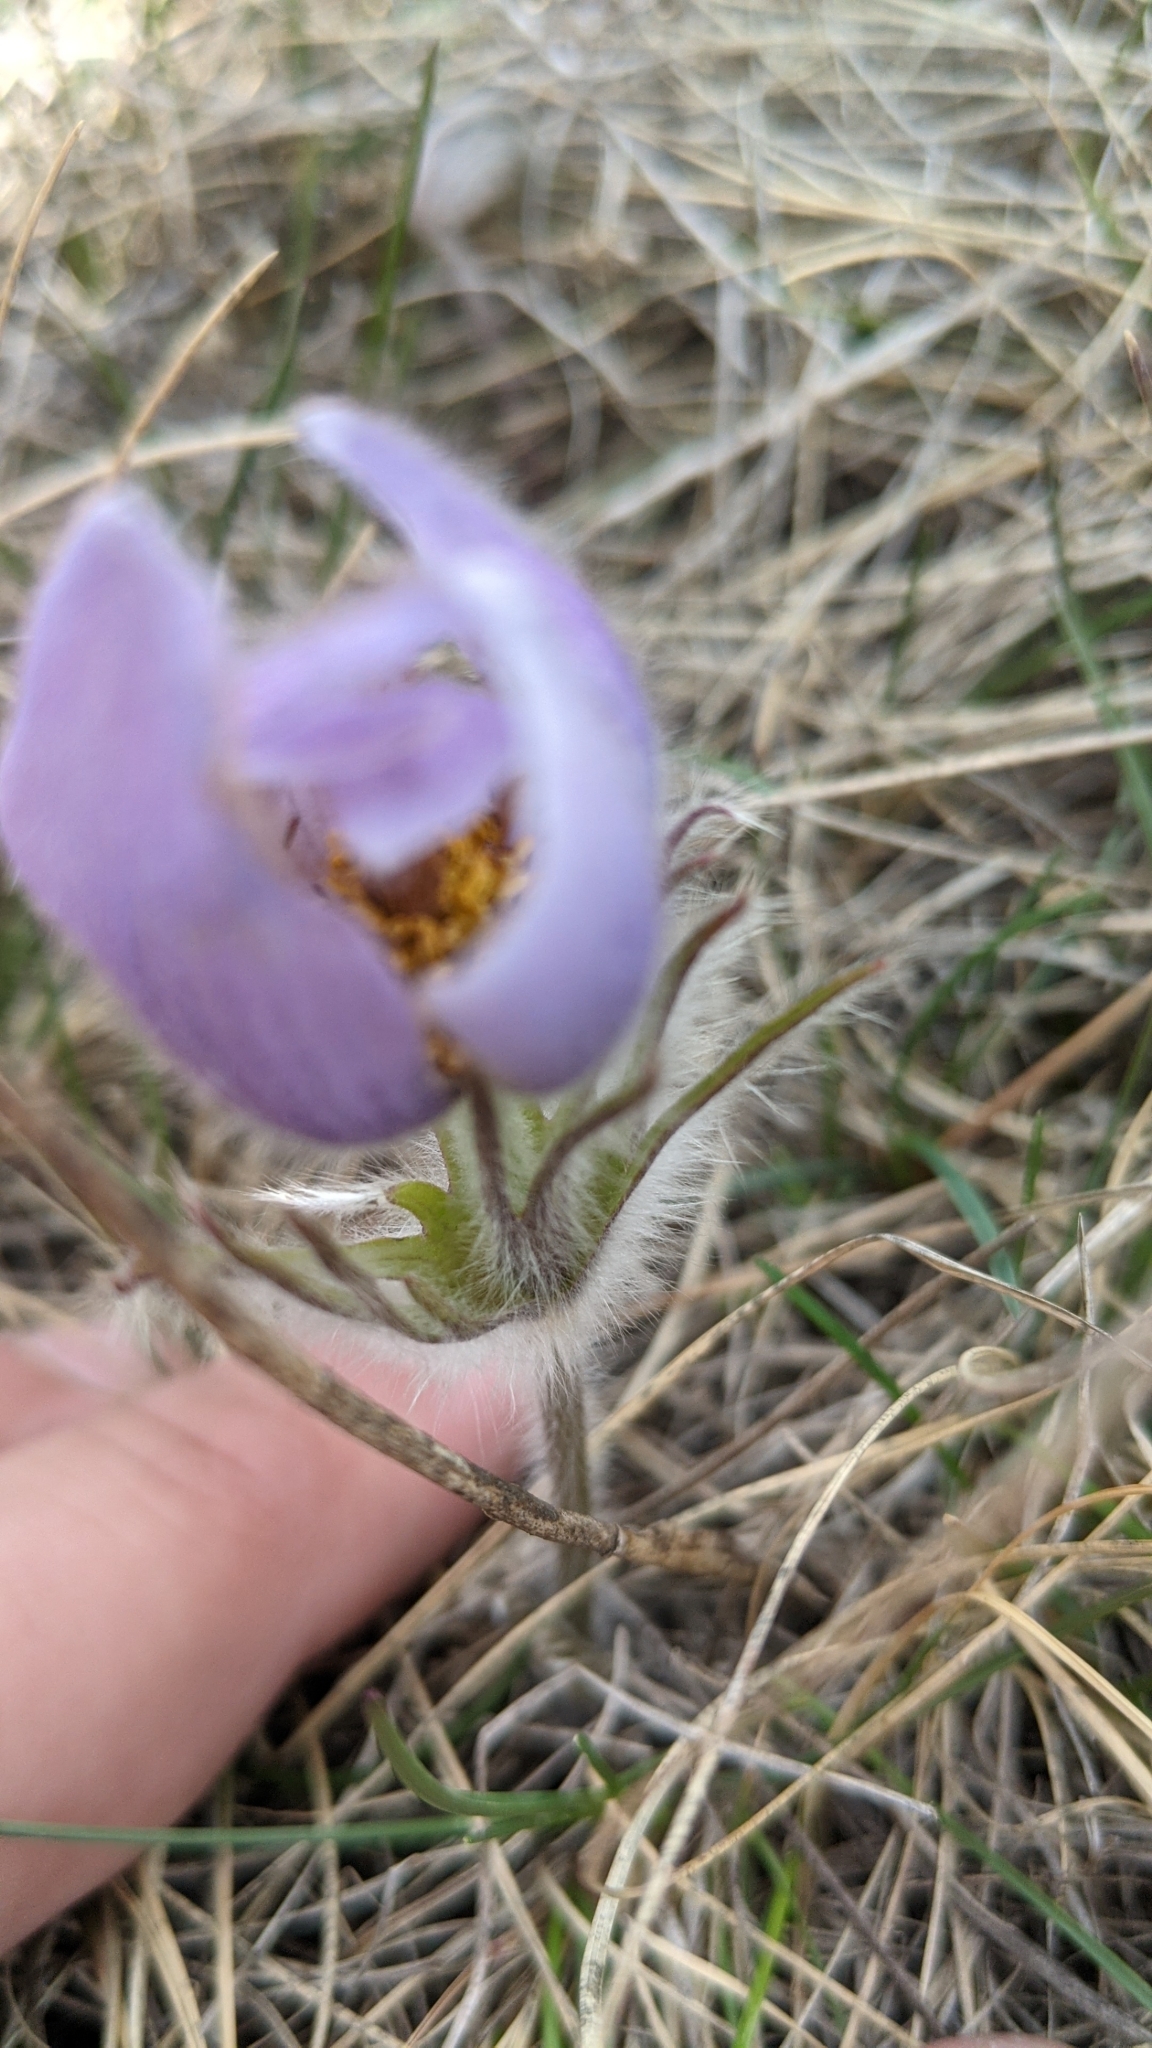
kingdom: Plantae
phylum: Tracheophyta
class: Magnoliopsida
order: Ranunculales
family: Ranunculaceae
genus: Pulsatilla
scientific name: Pulsatilla nuttalliana
